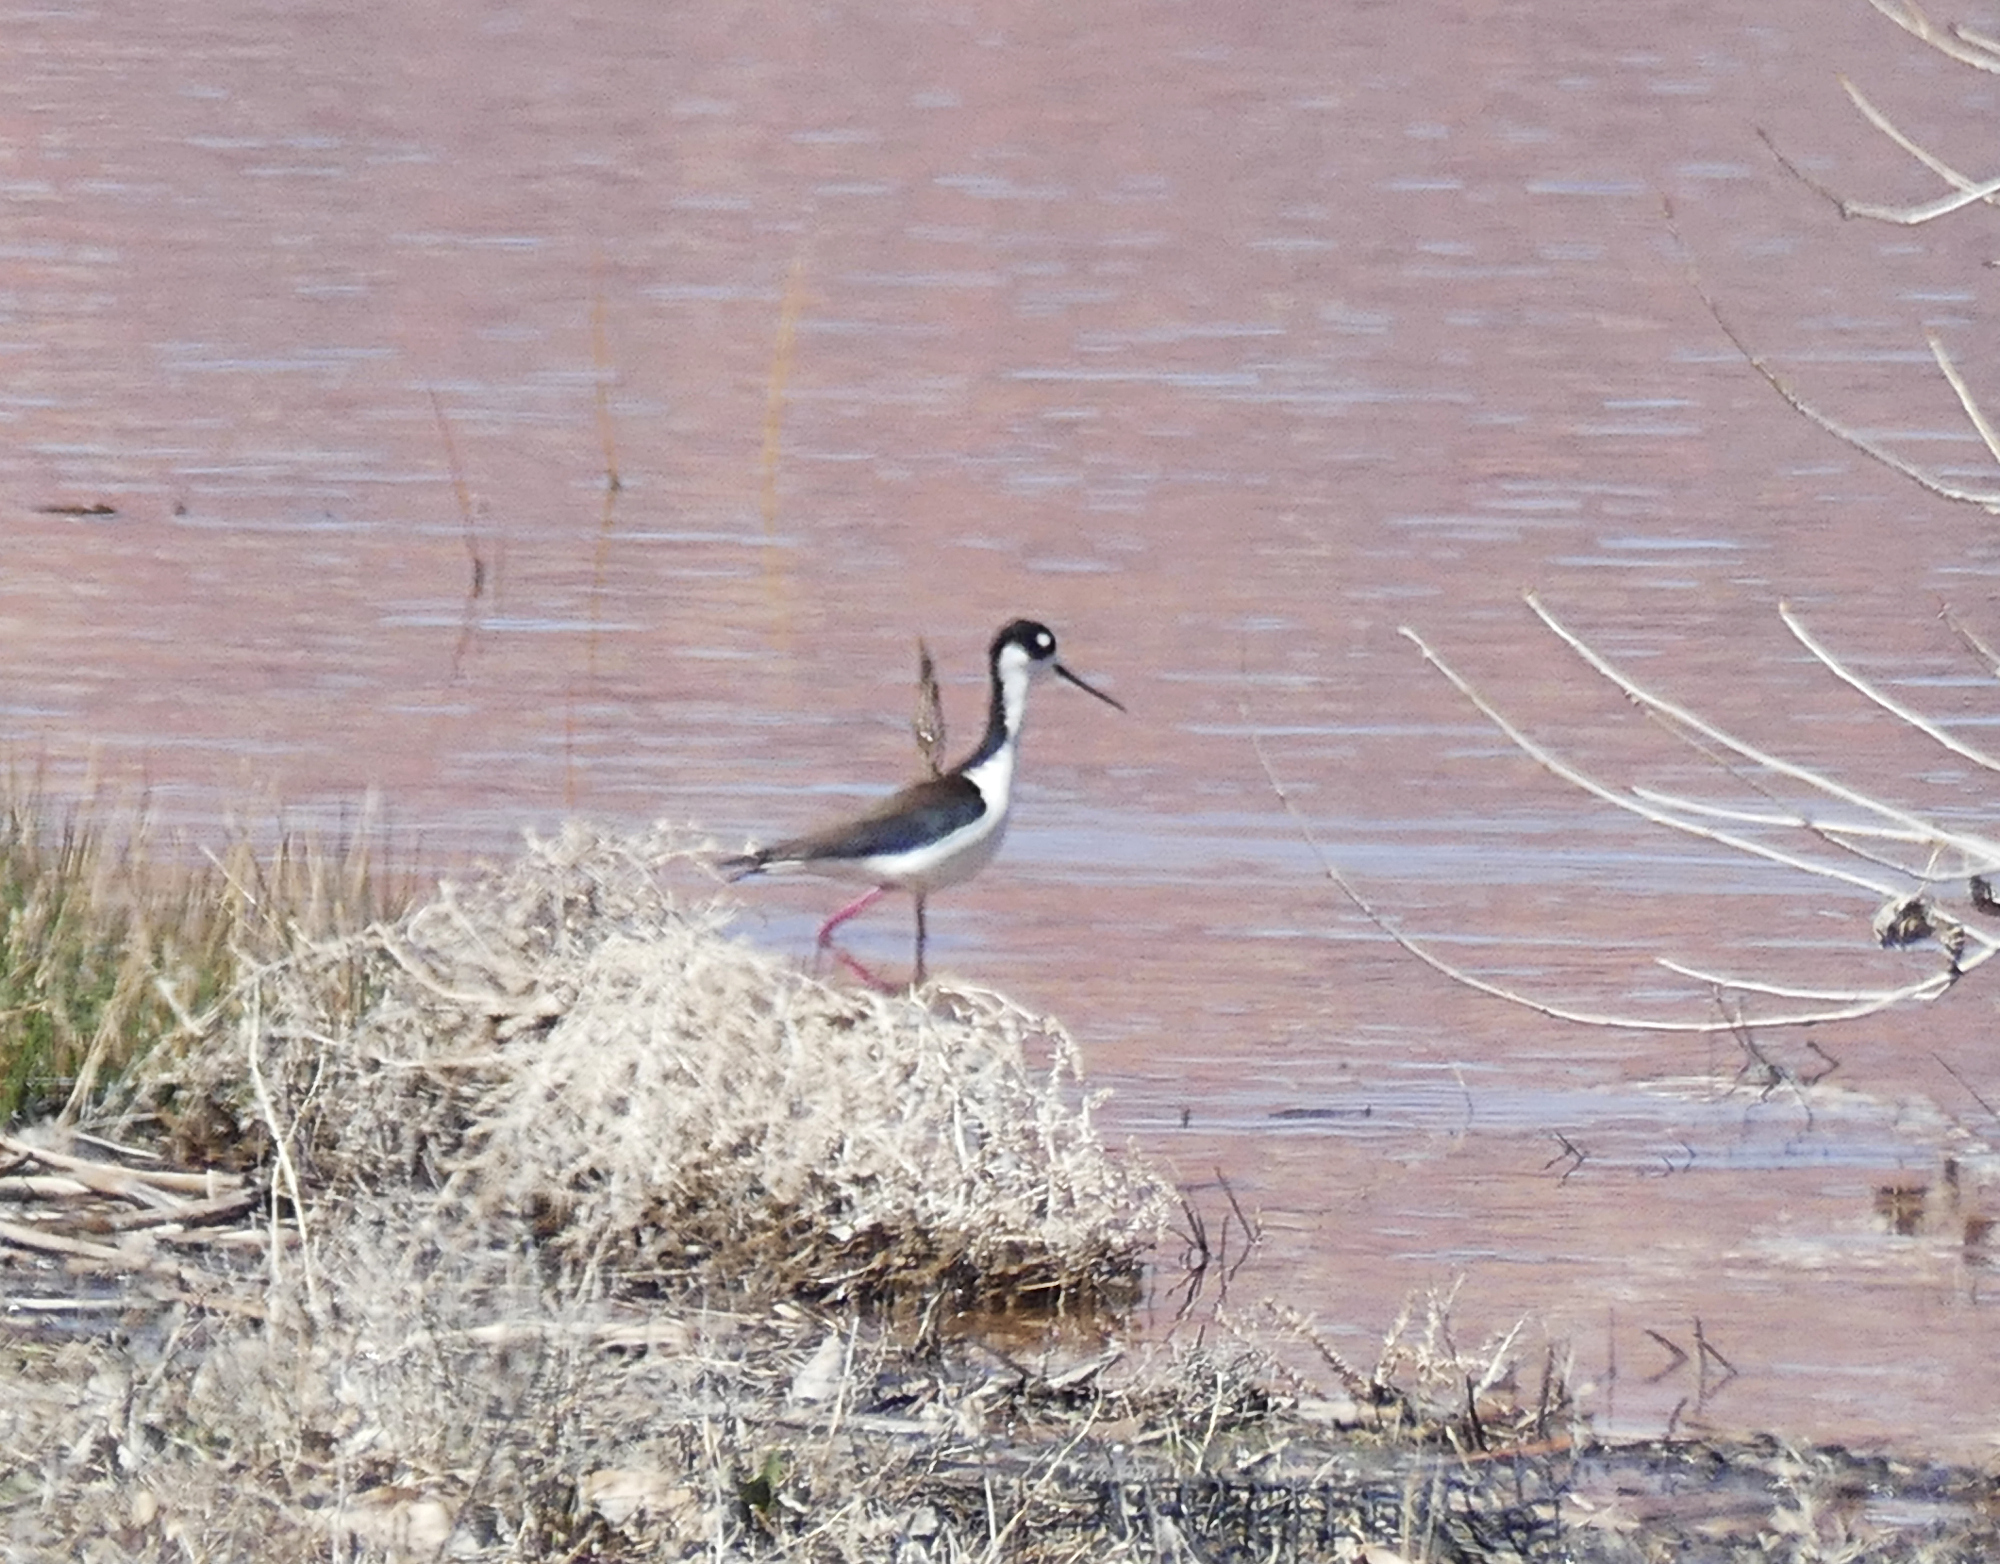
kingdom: Animalia
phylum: Chordata
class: Aves
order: Charadriiformes
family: Recurvirostridae
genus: Himantopus
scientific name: Himantopus mexicanus
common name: Black-necked stilt
